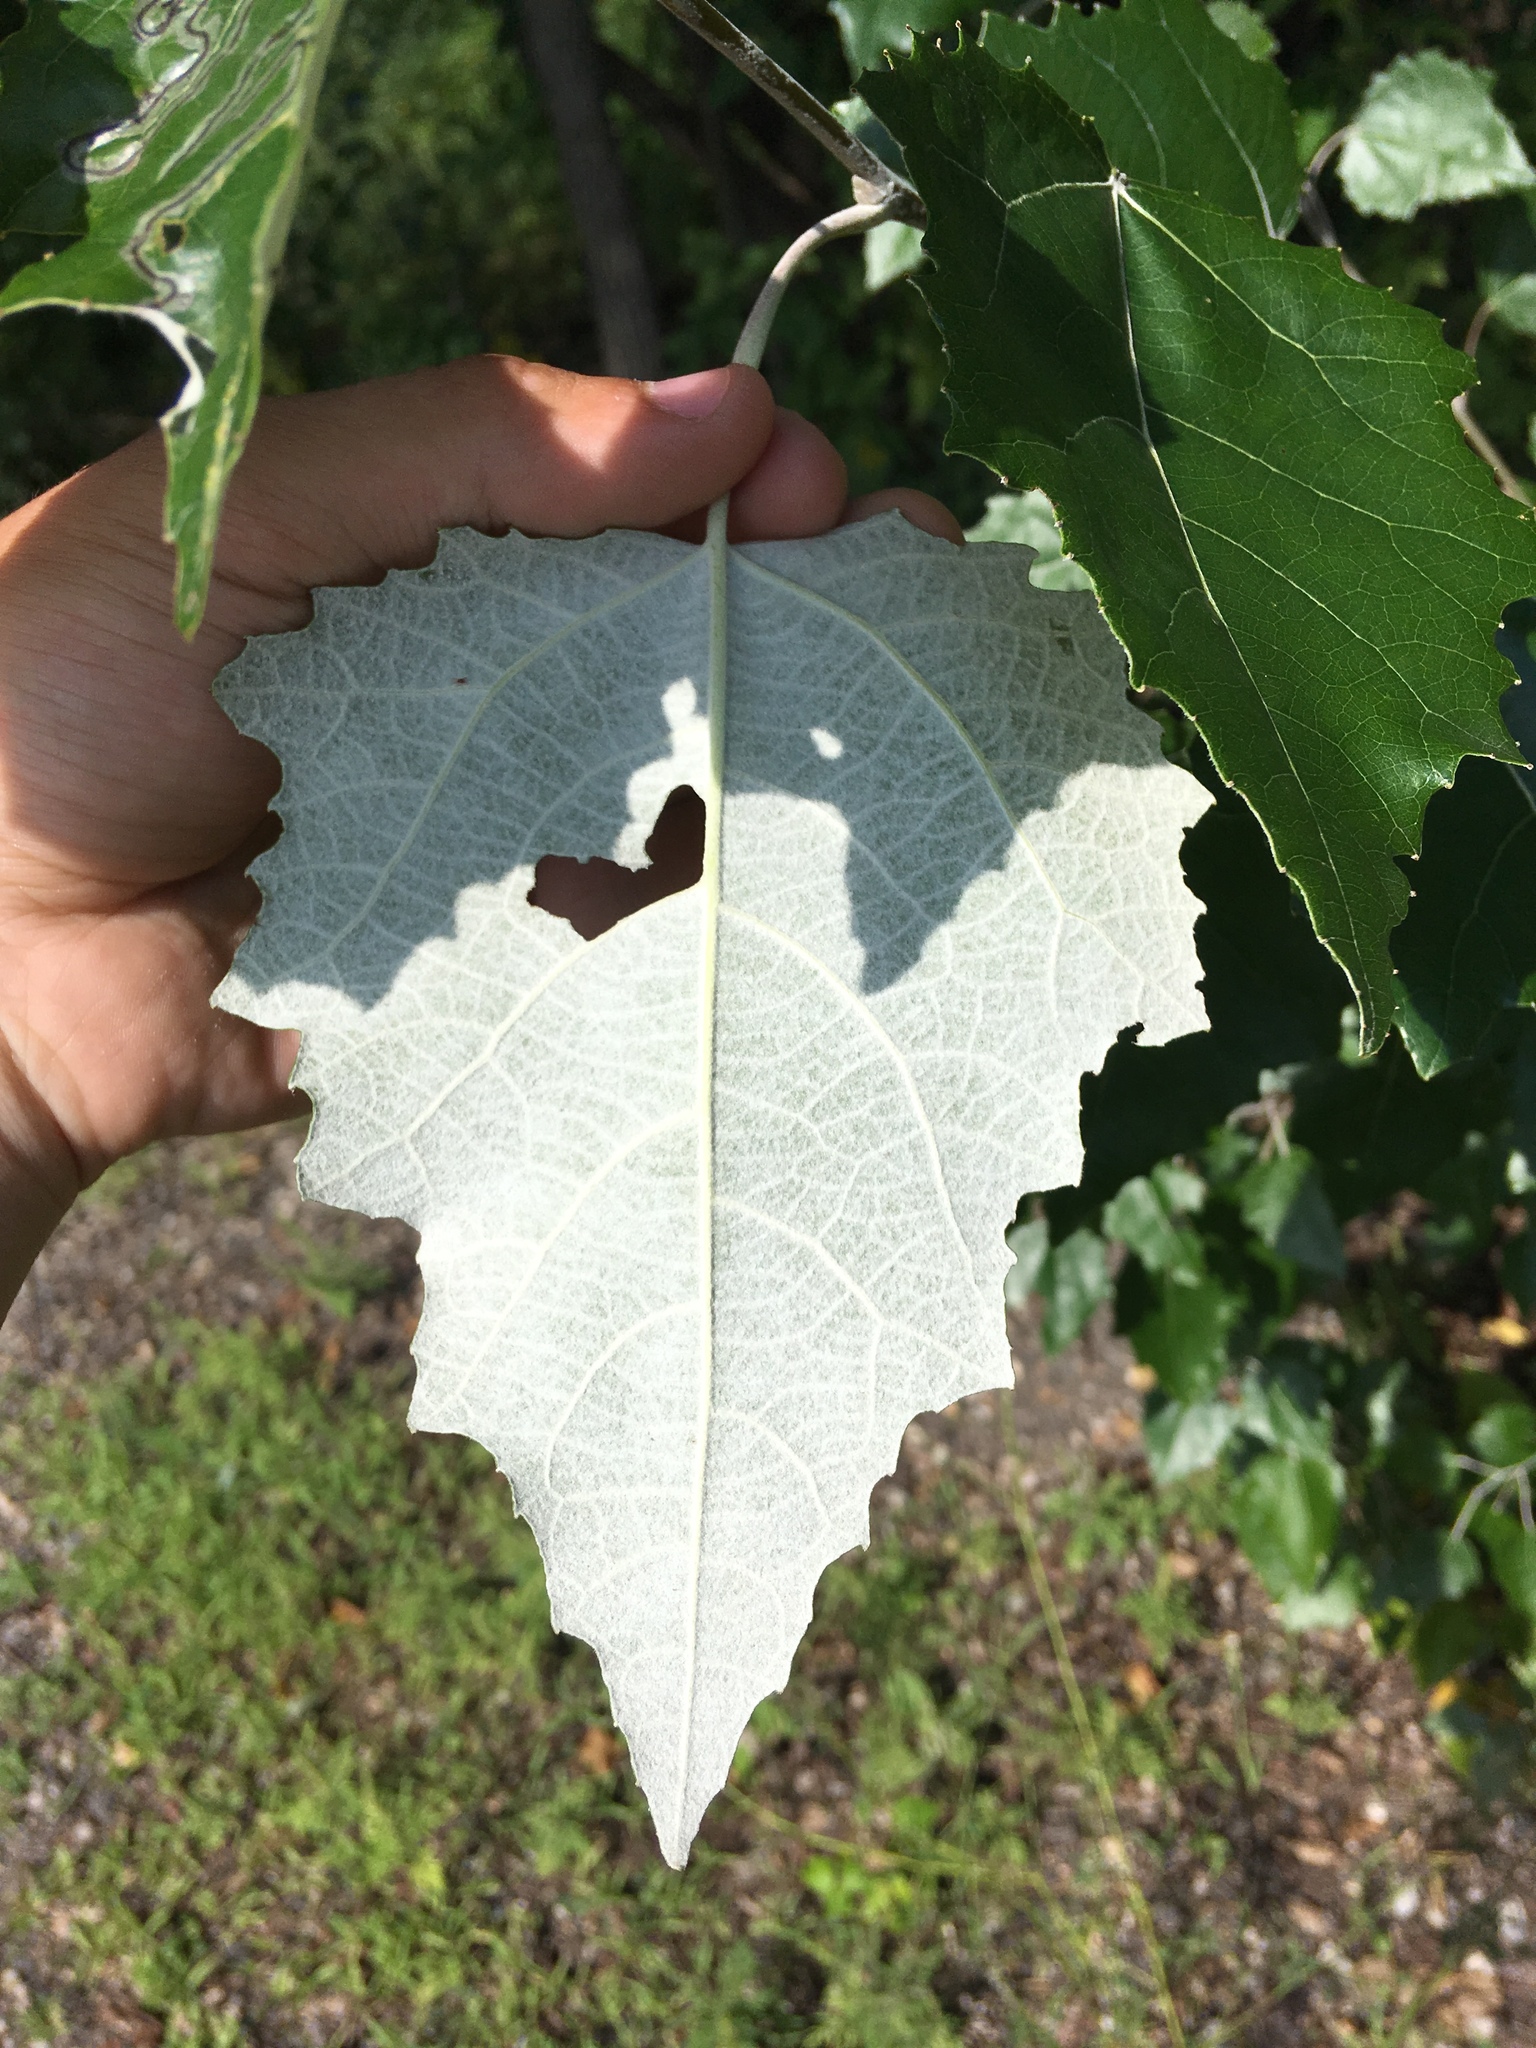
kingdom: Plantae
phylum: Tracheophyta
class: Magnoliopsida
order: Malpighiales
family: Salicaceae
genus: Populus
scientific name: Populus alba
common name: White poplar
